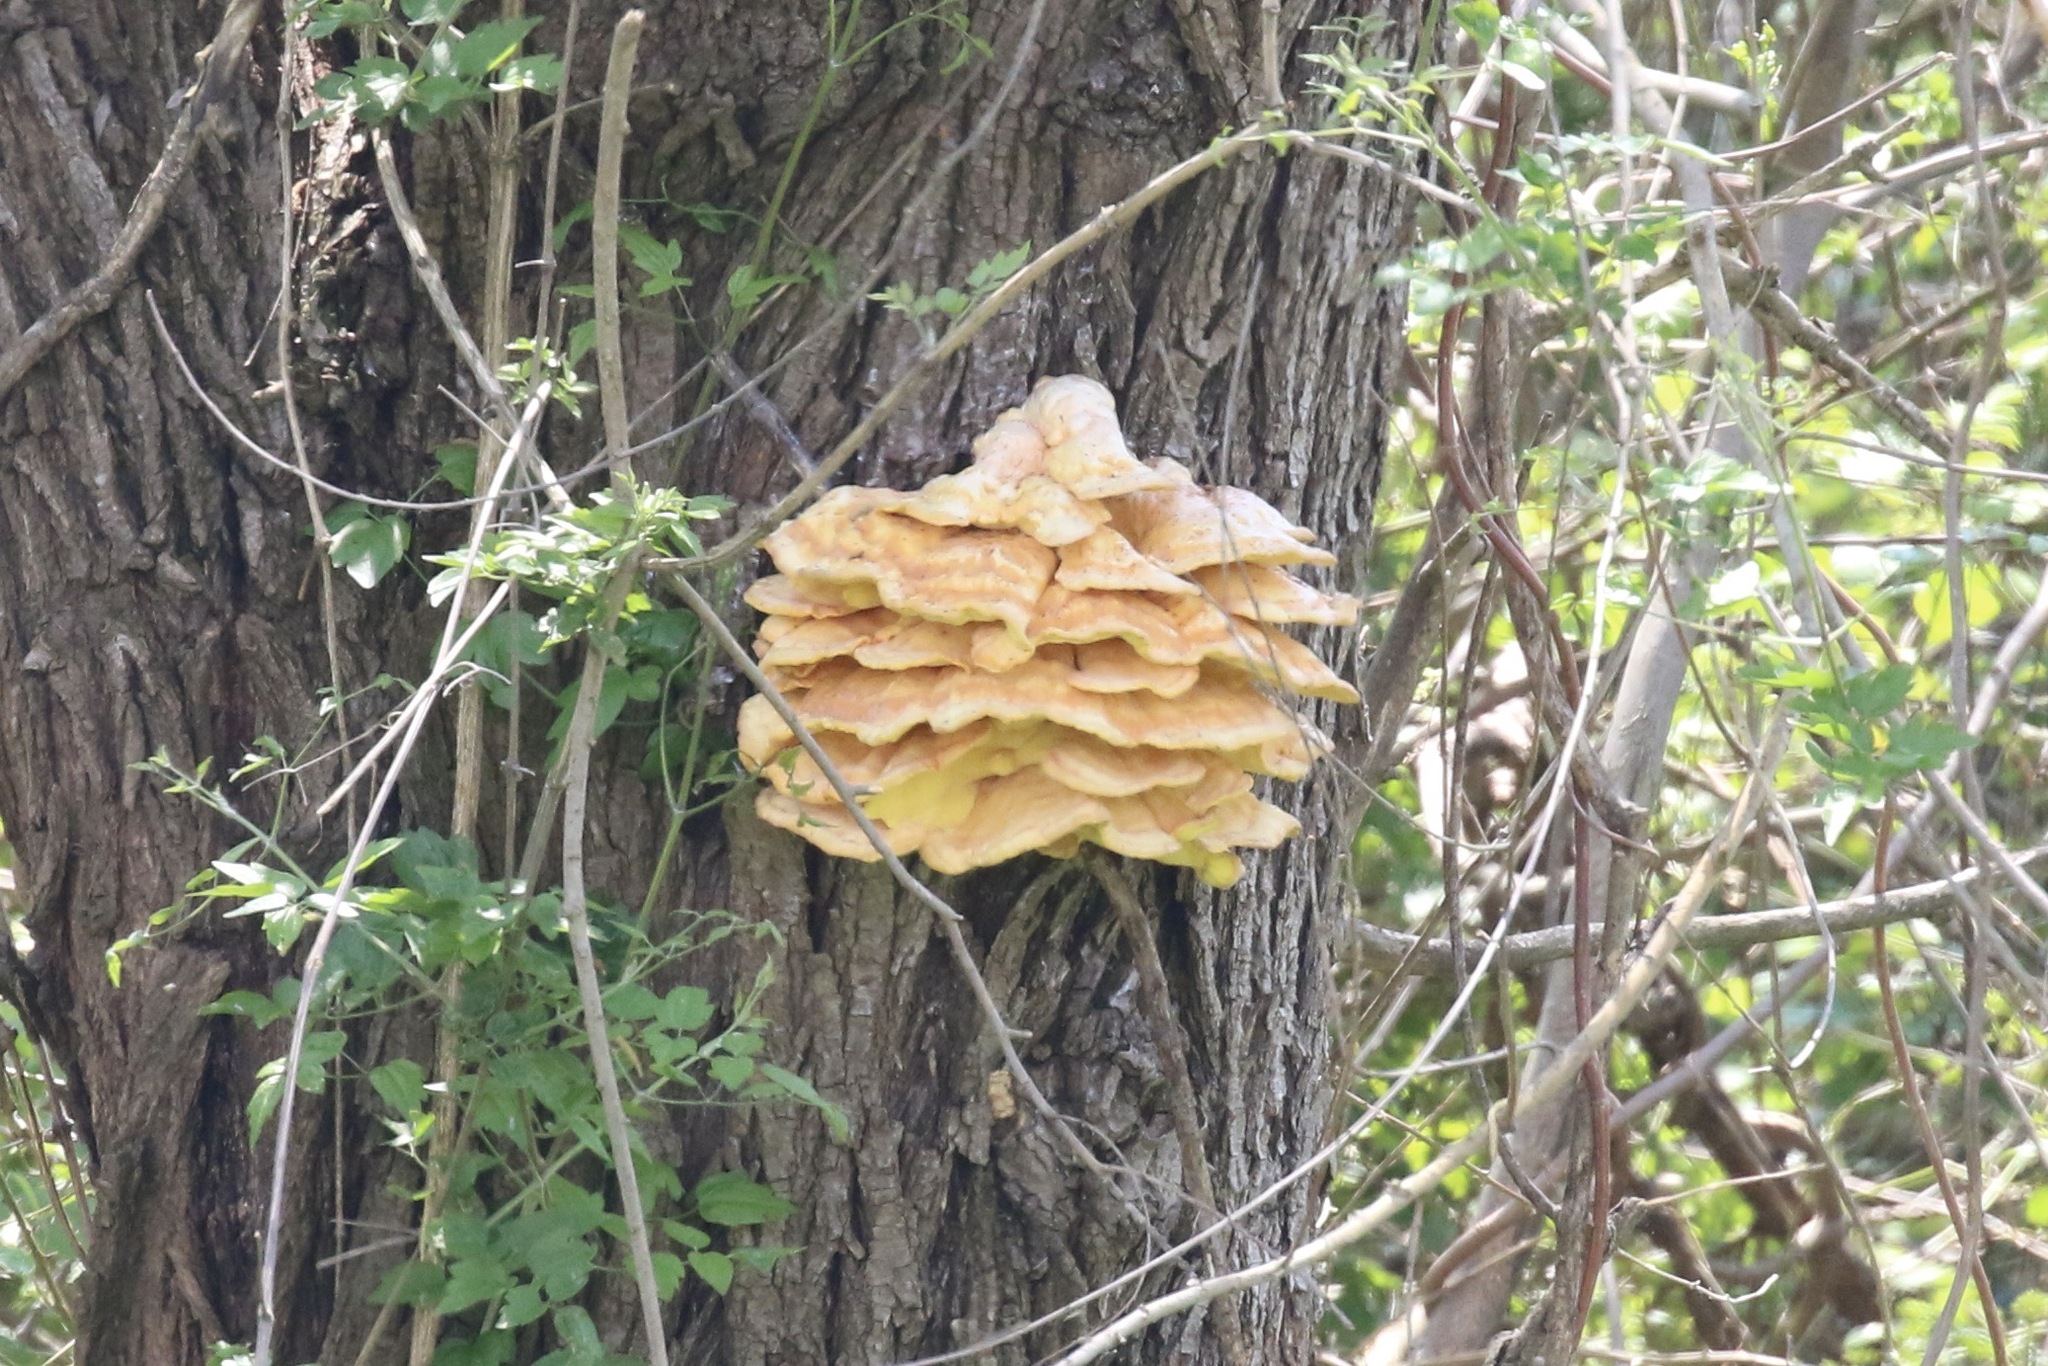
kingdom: Fungi
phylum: Basidiomycota
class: Agaricomycetes
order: Polyporales
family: Laetiporaceae
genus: Laetiporus
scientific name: Laetiporus sulphureus
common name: Chicken of the woods
